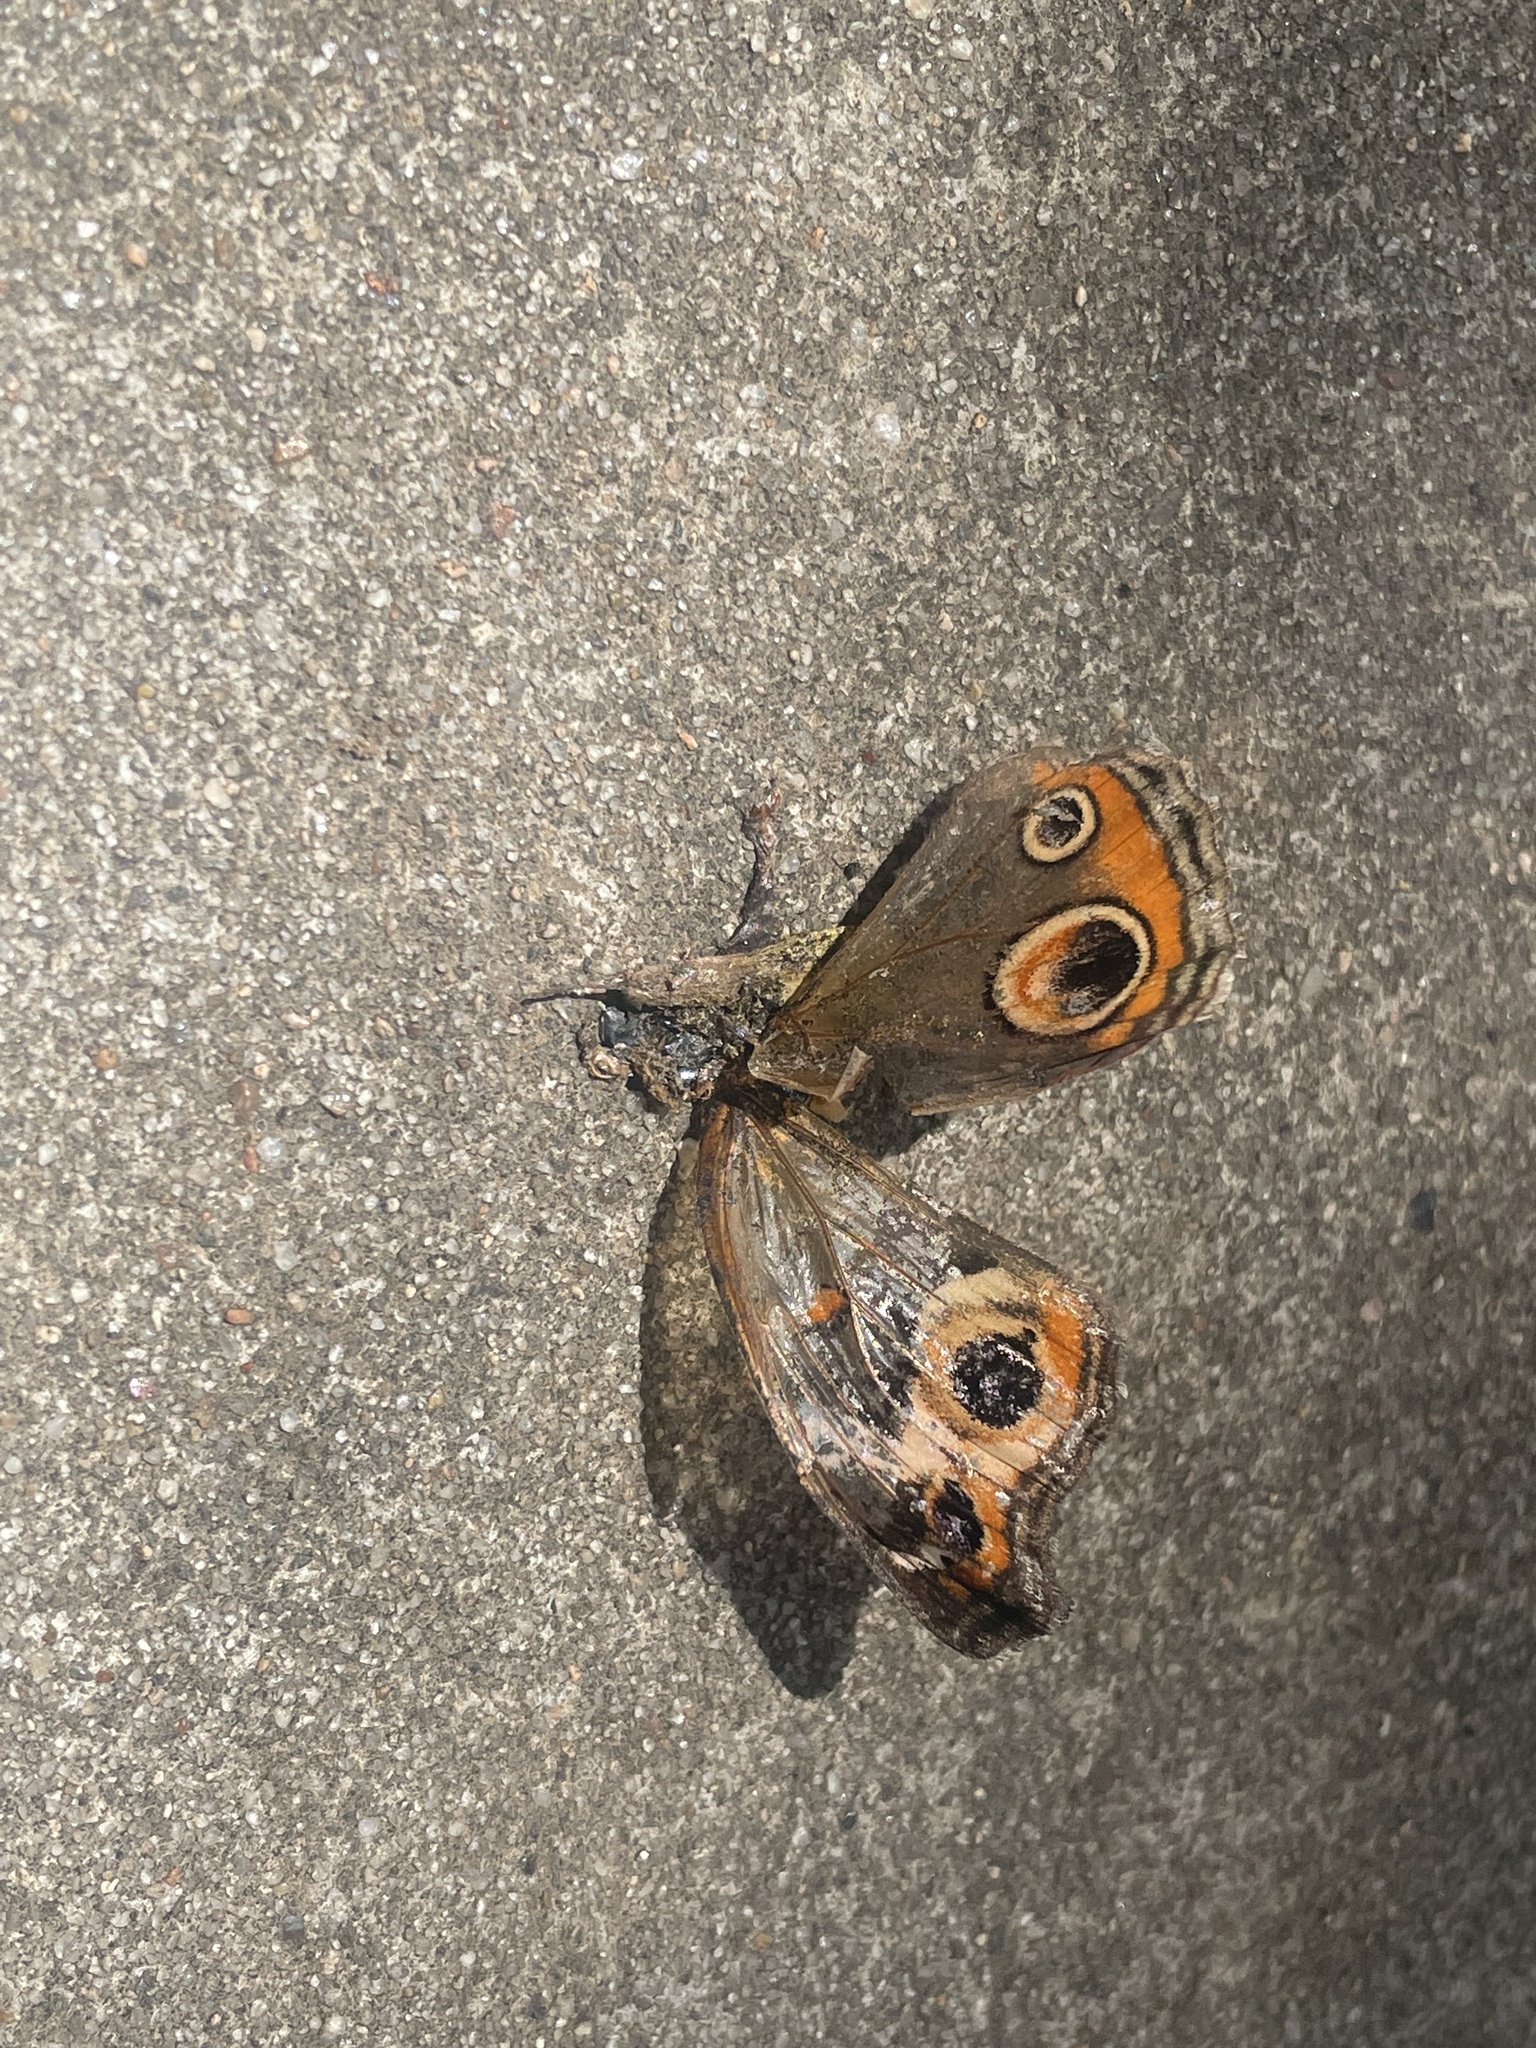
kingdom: Animalia
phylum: Arthropoda
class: Insecta
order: Lepidoptera
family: Nymphalidae
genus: Junonia
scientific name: Junonia coenia
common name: Common buckeye
